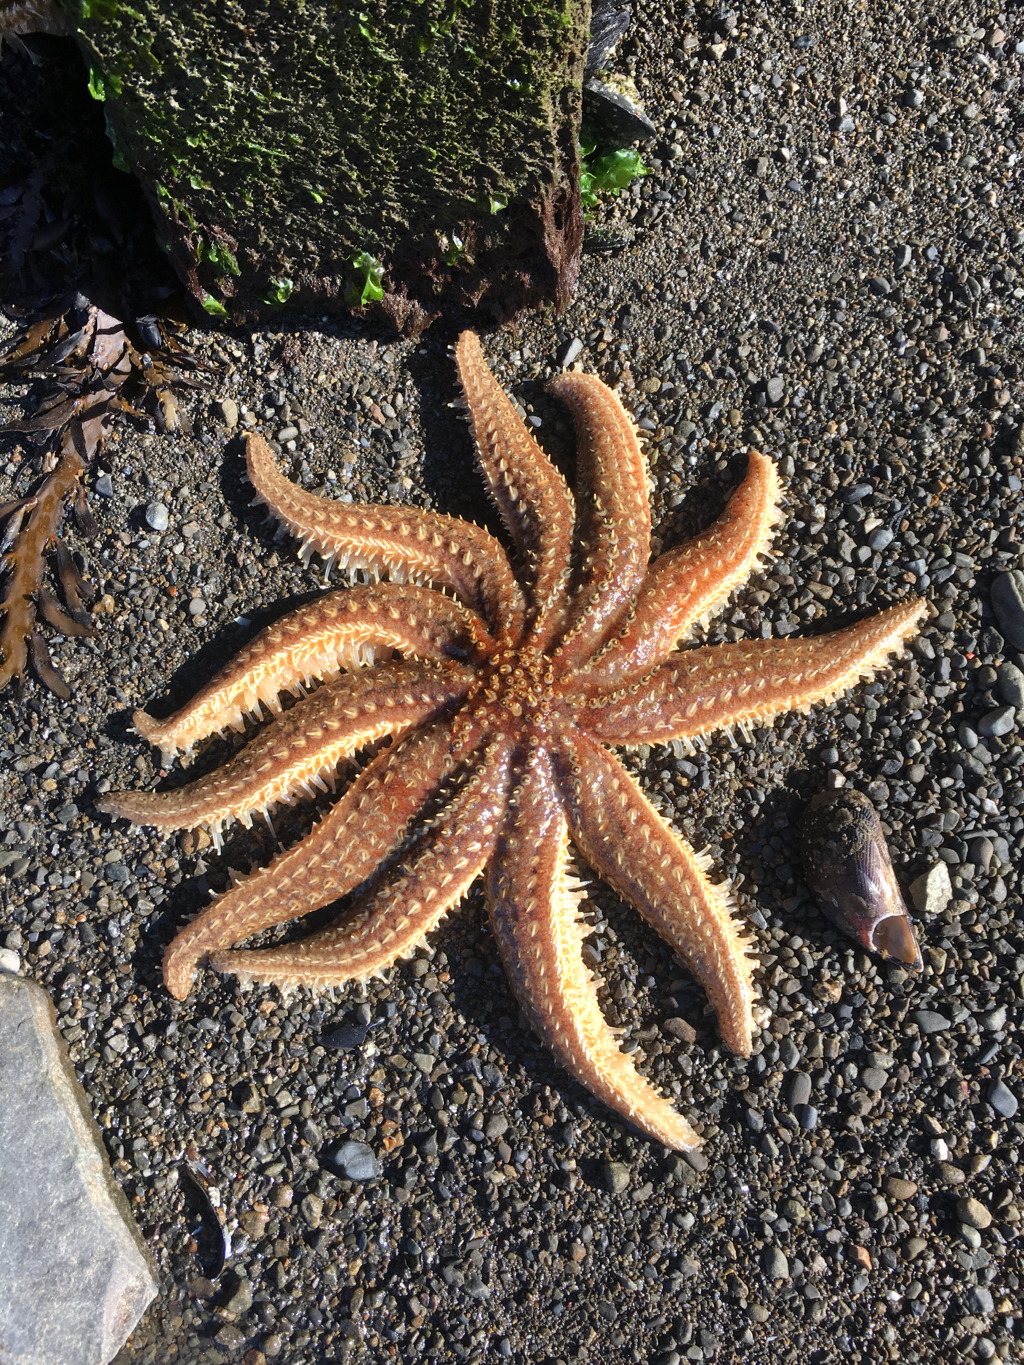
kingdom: Animalia
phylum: Echinodermata
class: Asteroidea
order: Forcipulatida
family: Asteriidae
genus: Coscinasterias
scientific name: Coscinasterias muricata
